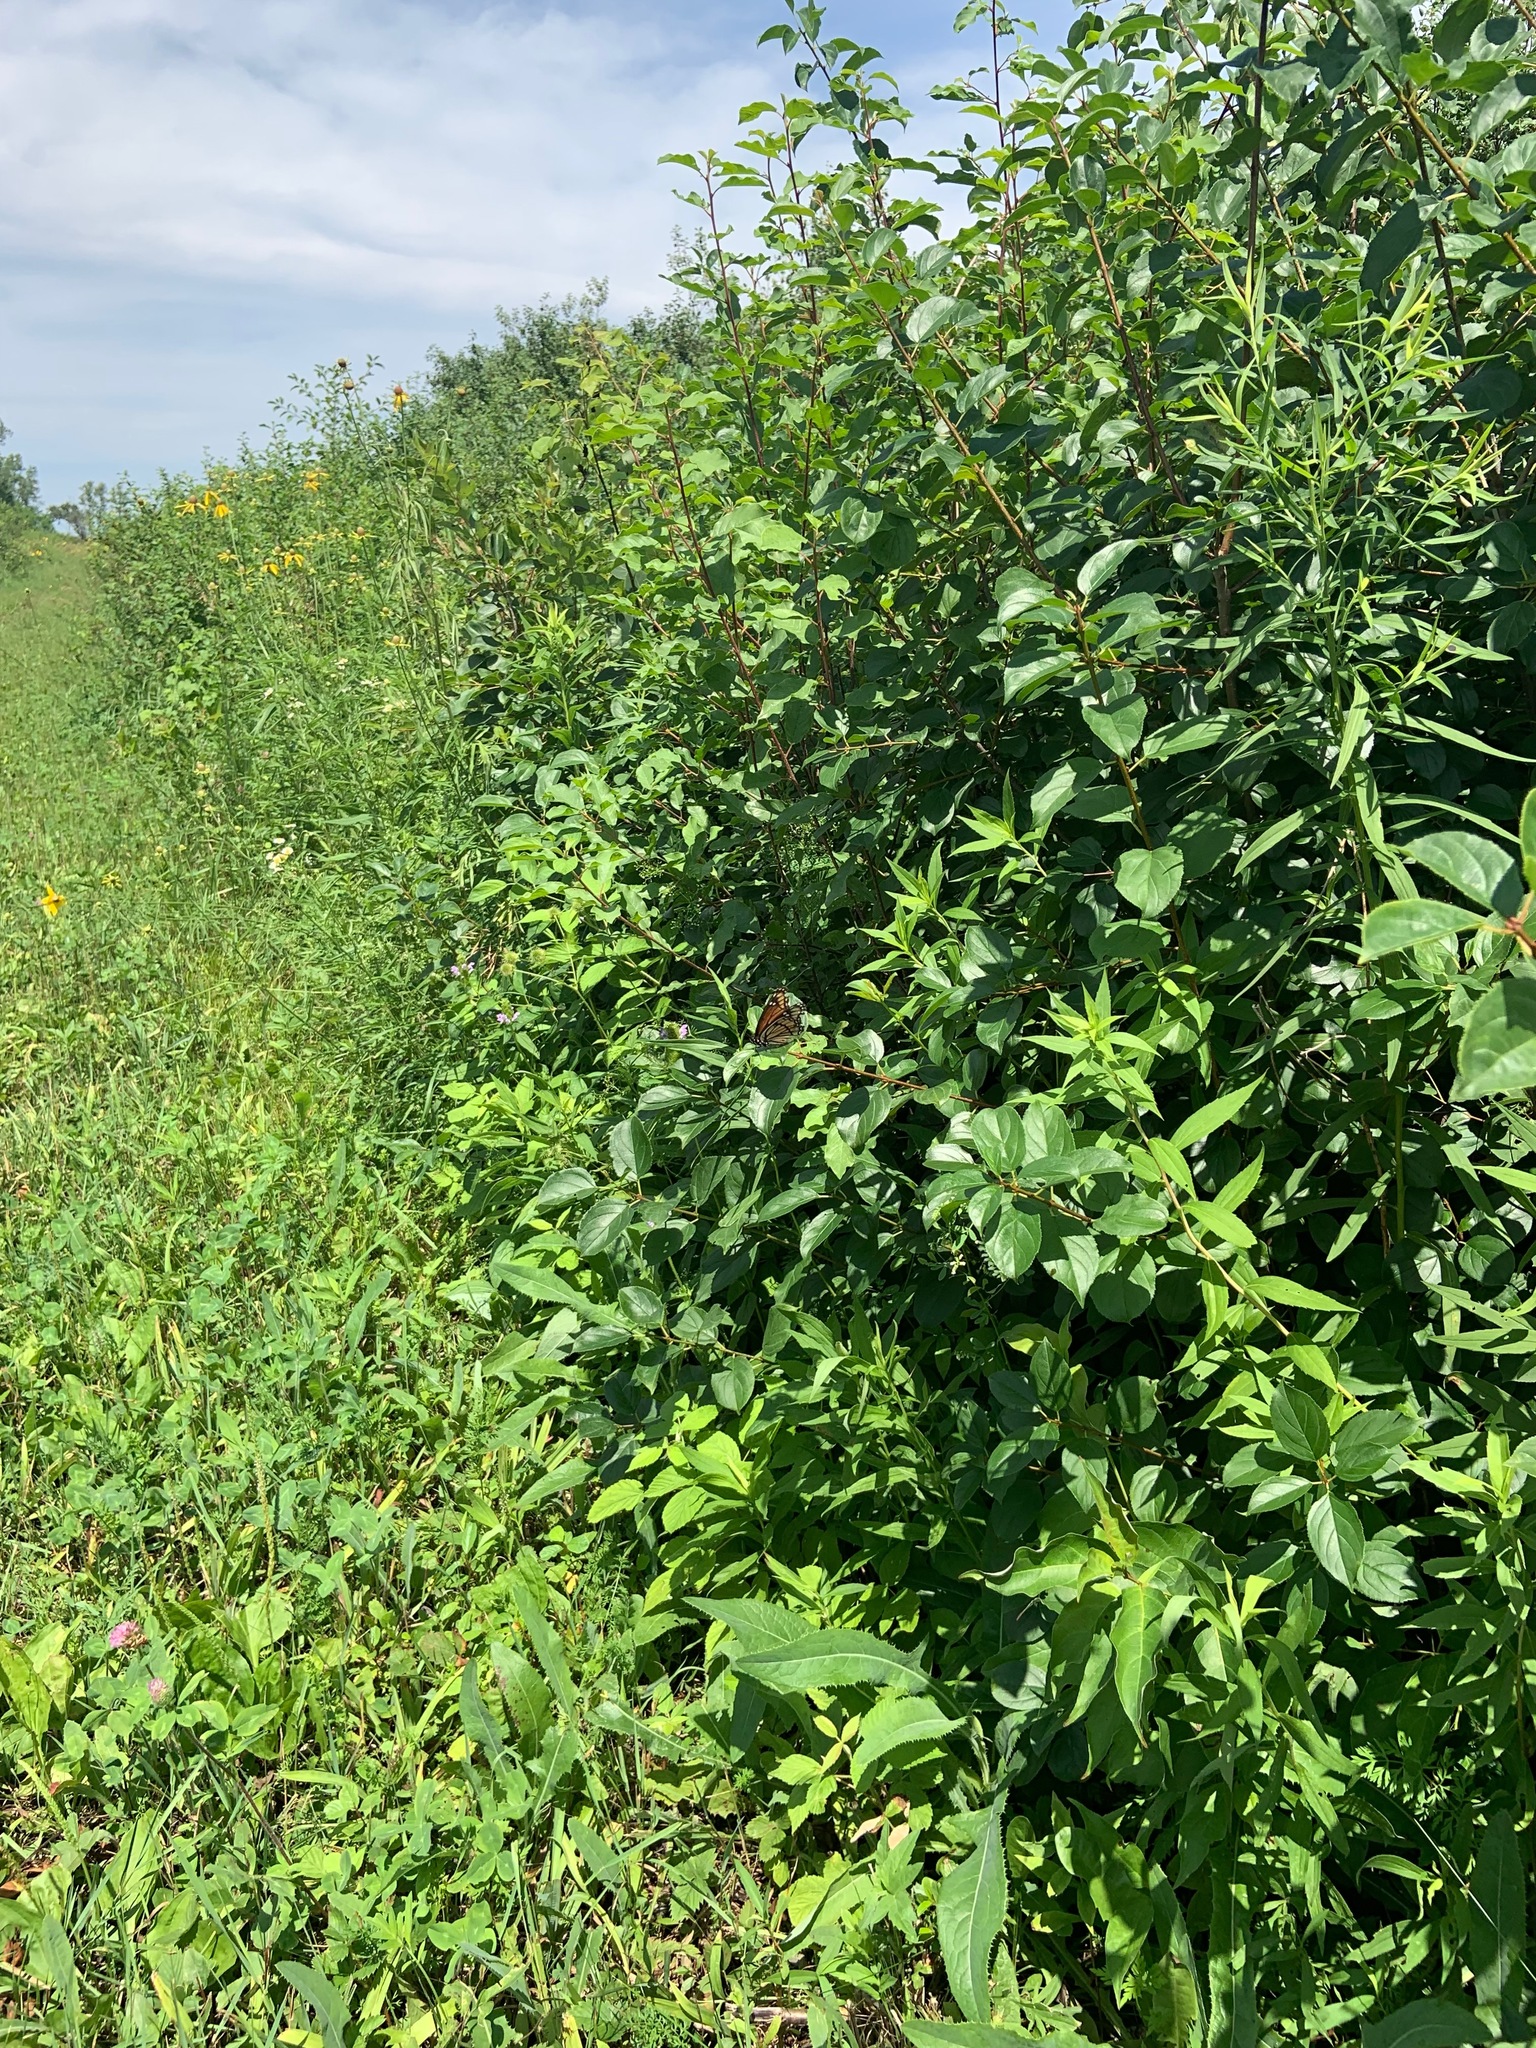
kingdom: Animalia
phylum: Arthropoda
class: Insecta
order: Lepidoptera
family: Nymphalidae
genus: Limenitis
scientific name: Limenitis archippus
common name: Viceroy
